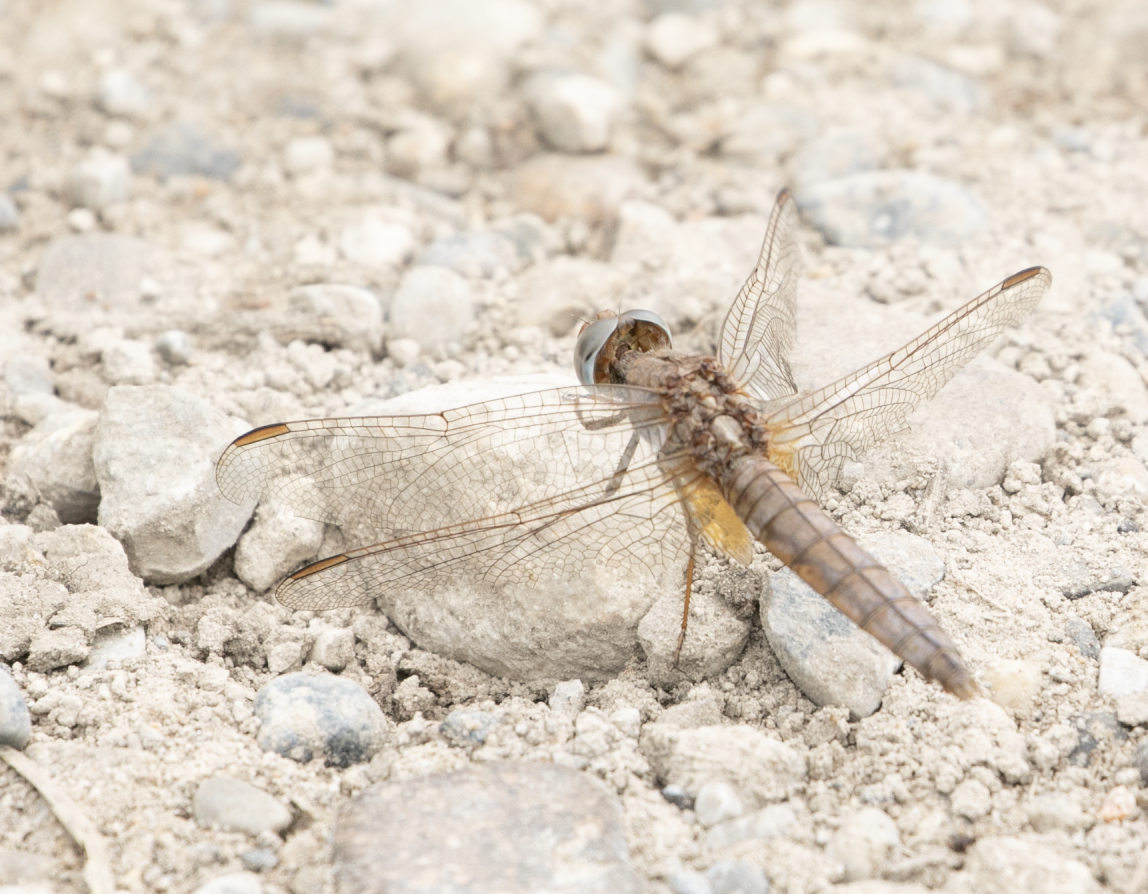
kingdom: Animalia
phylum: Arthropoda
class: Insecta
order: Odonata
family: Libellulidae
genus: Crocothemis
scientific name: Crocothemis erythraea
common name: Scarlet dragonfly
